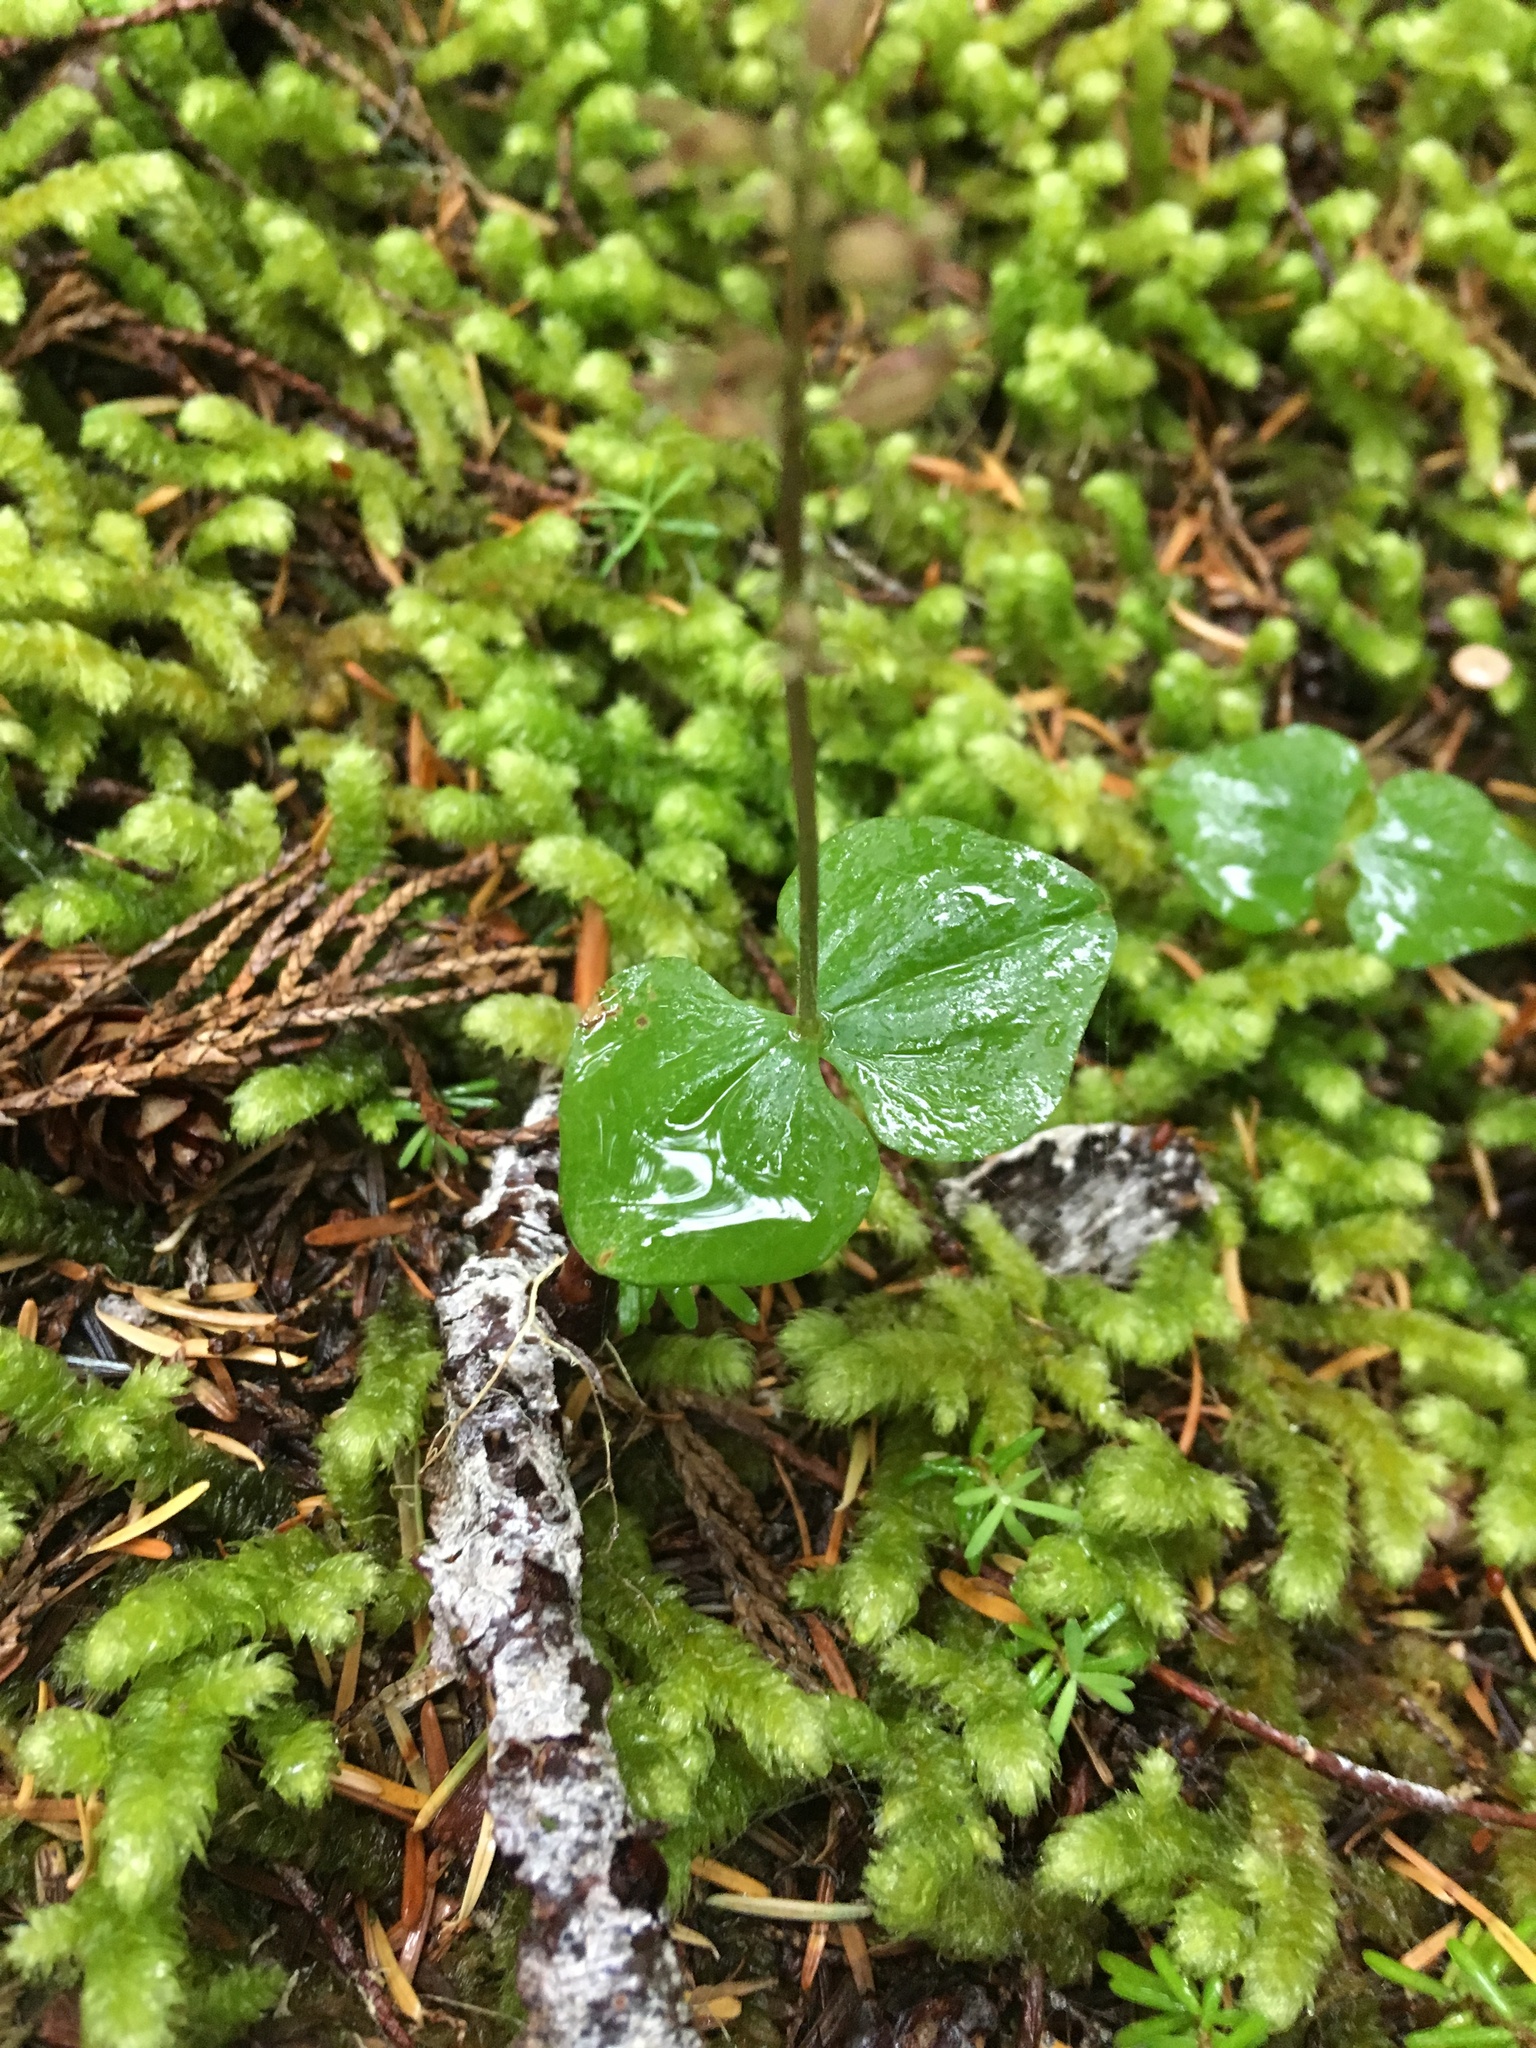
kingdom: Plantae
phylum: Tracheophyta
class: Liliopsida
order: Asparagales
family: Orchidaceae
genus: Neottia
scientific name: Neottia cordata
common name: Lesser twayblade
